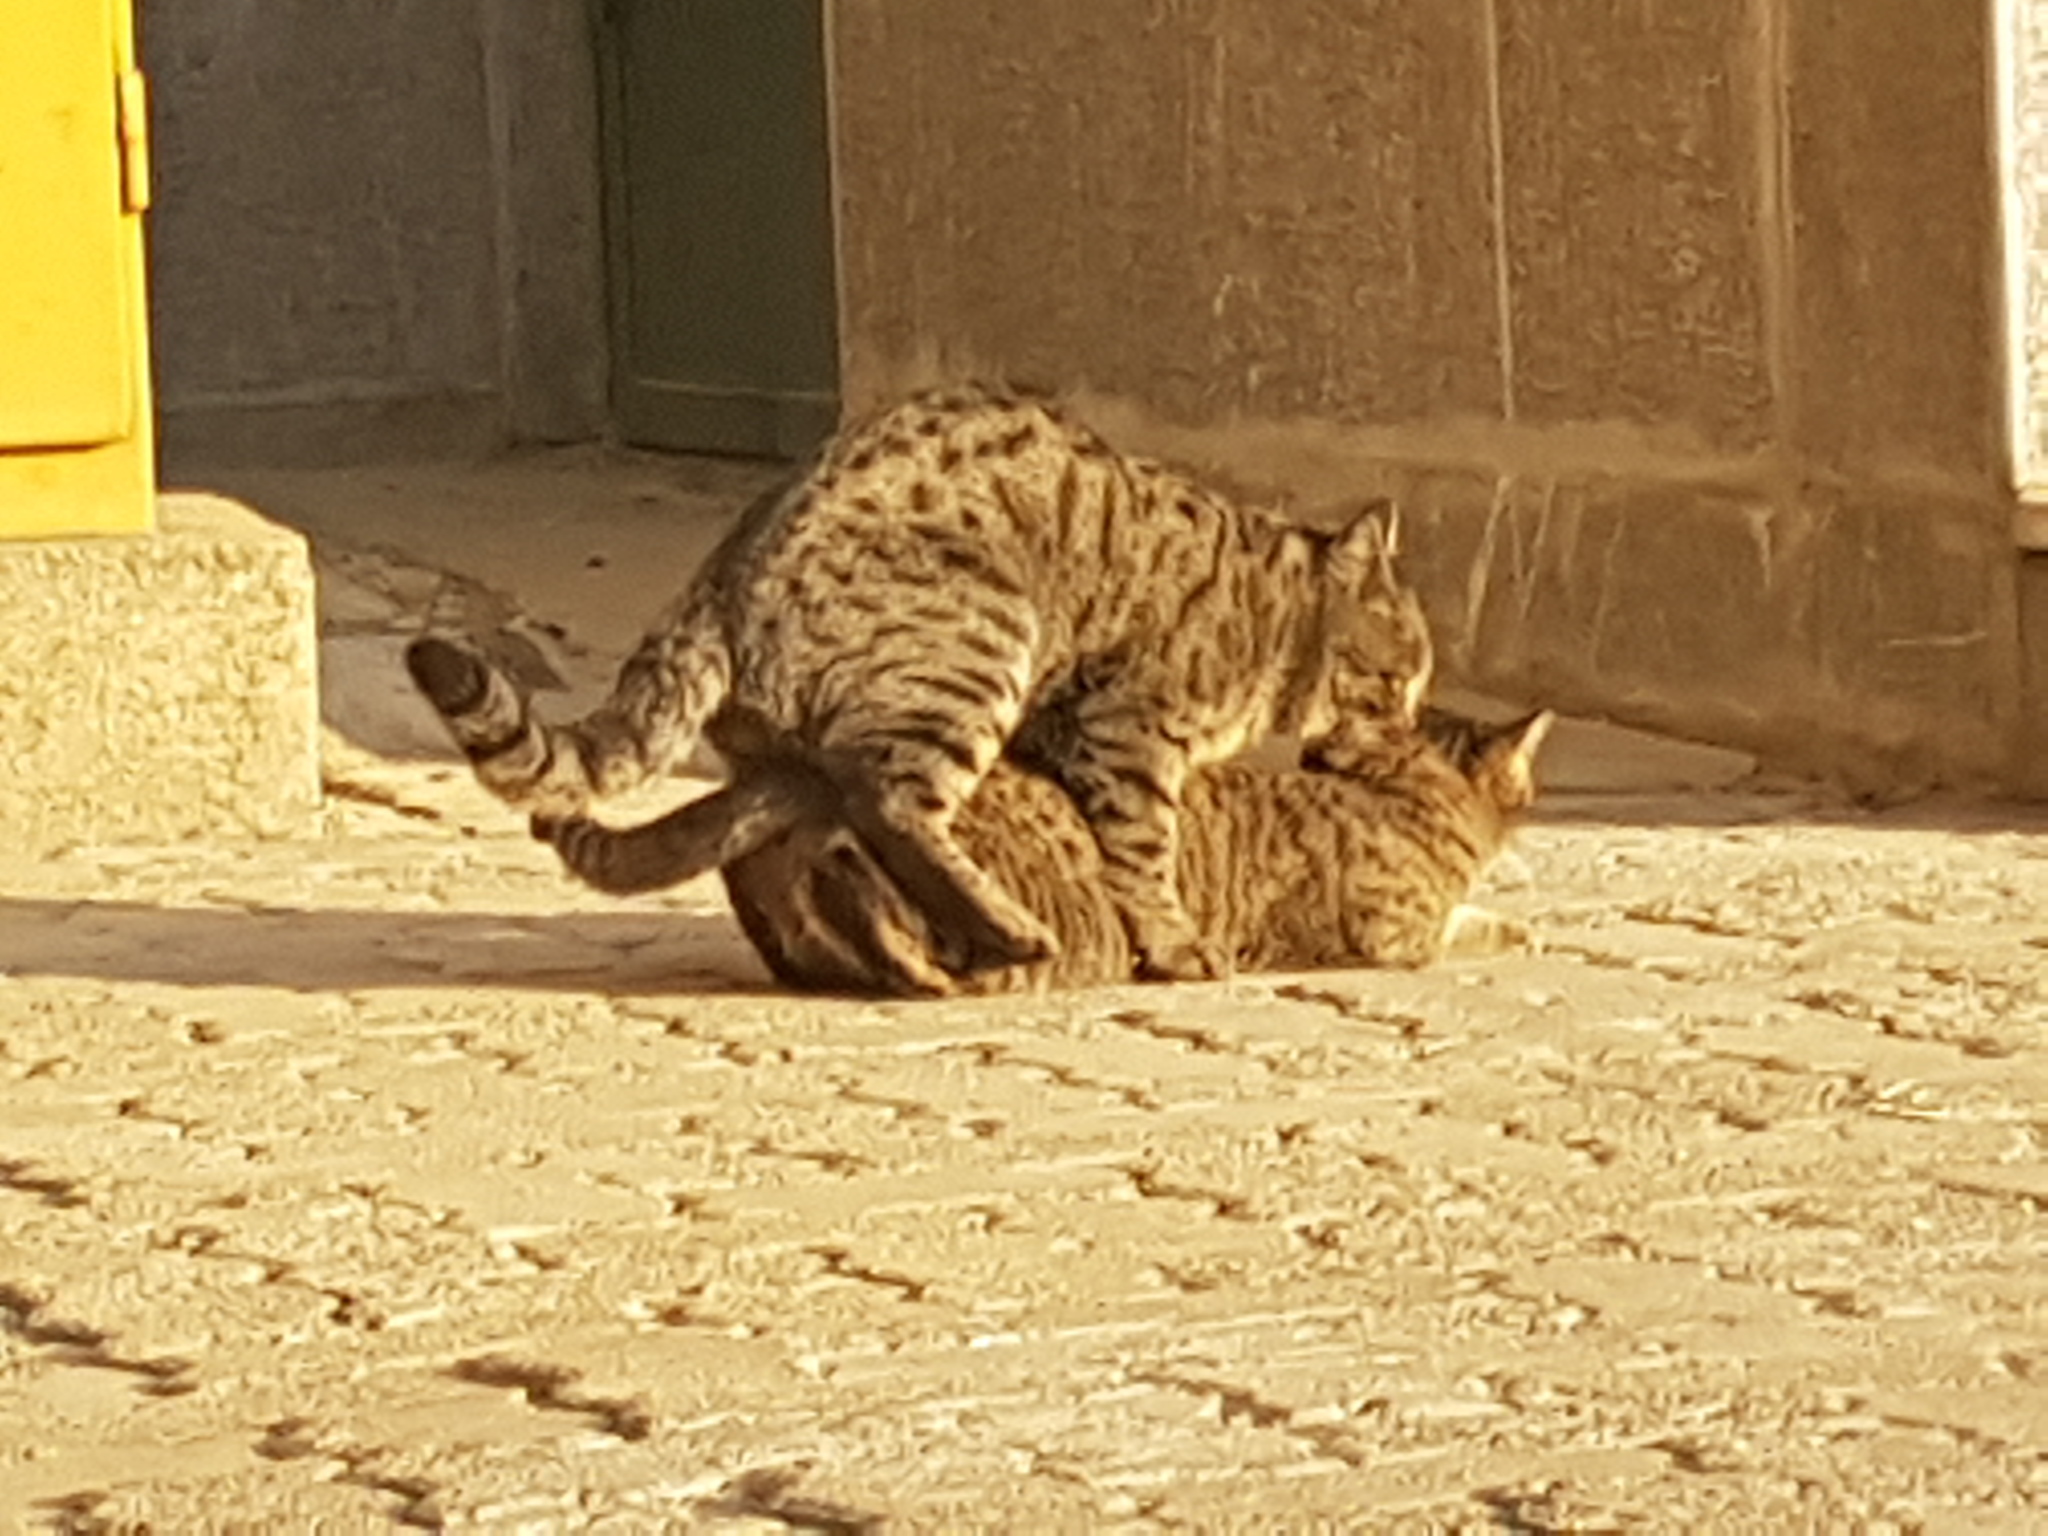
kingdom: Animalia
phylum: Chordata
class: Mammalia
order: Carnivora
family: Felidae
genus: Felis
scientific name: Felis catus
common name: Domestic cat
